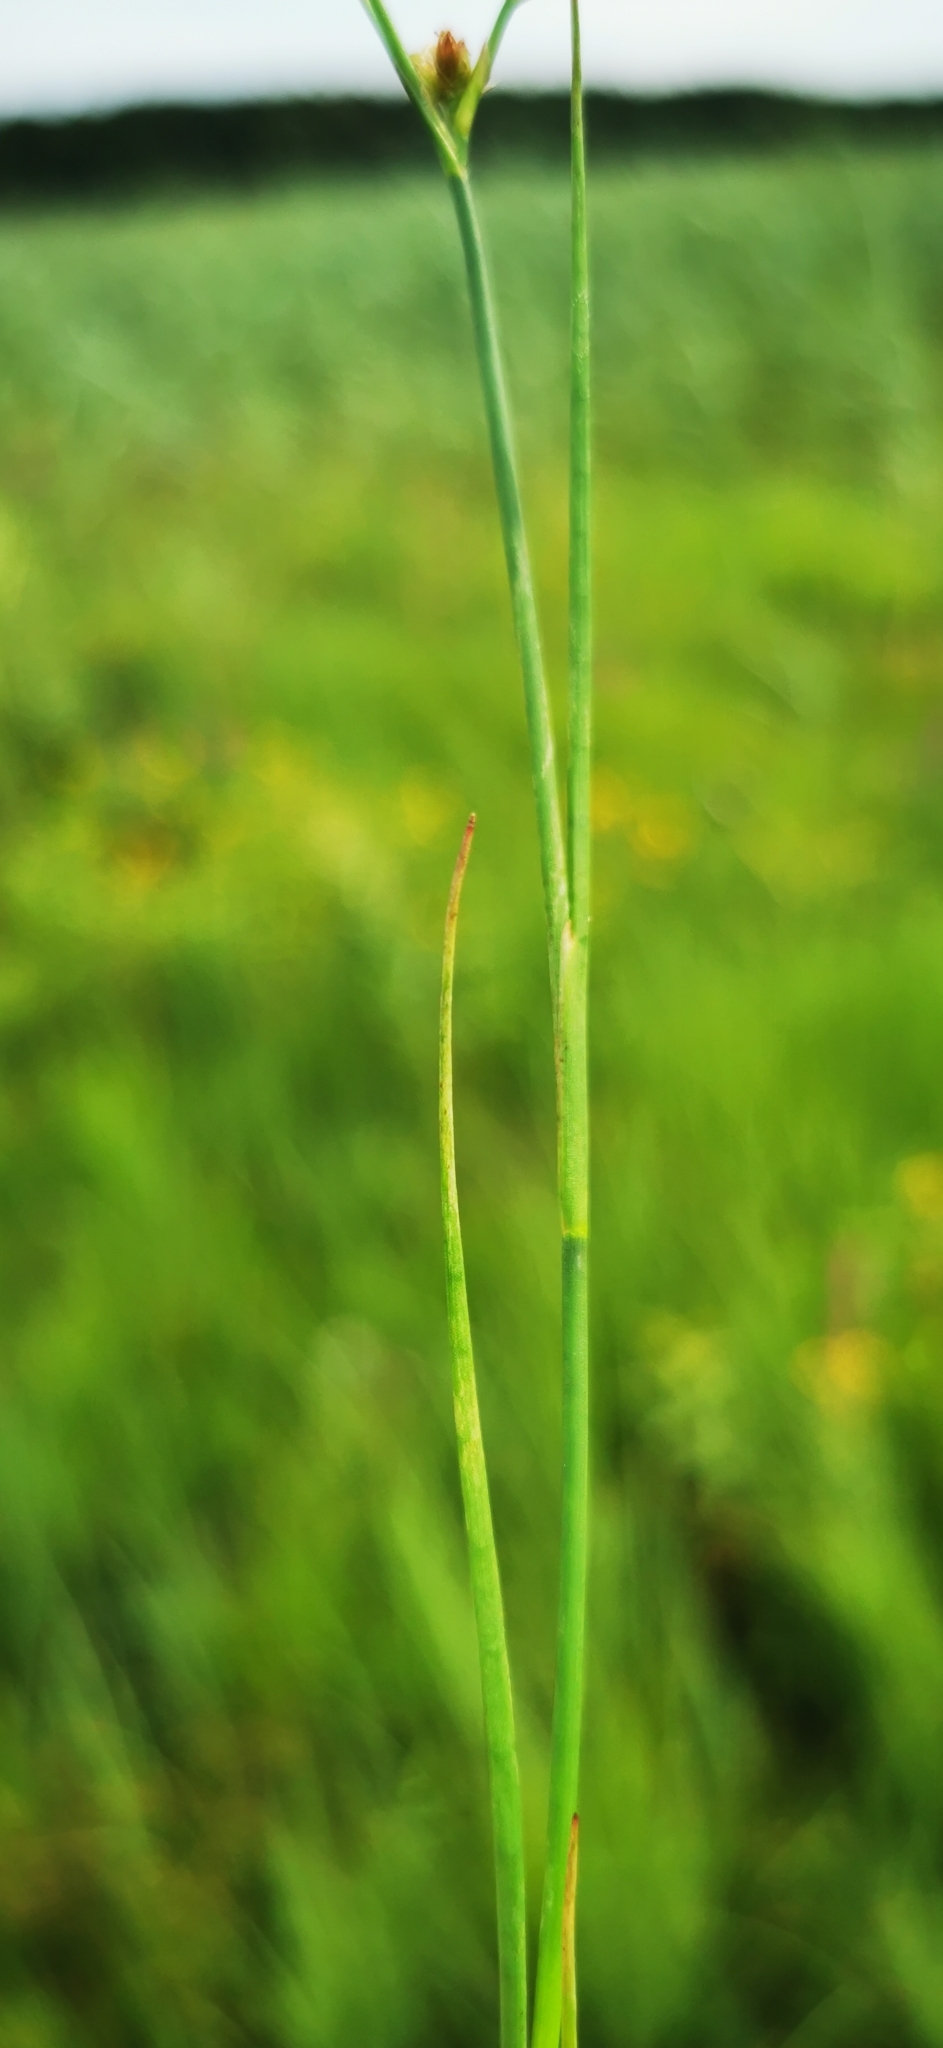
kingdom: Plantae
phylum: Tracheophyta
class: Liliopsida
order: Poales
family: Juncaceae
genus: Juncus
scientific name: Juncus articulatus
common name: Jointed rush
